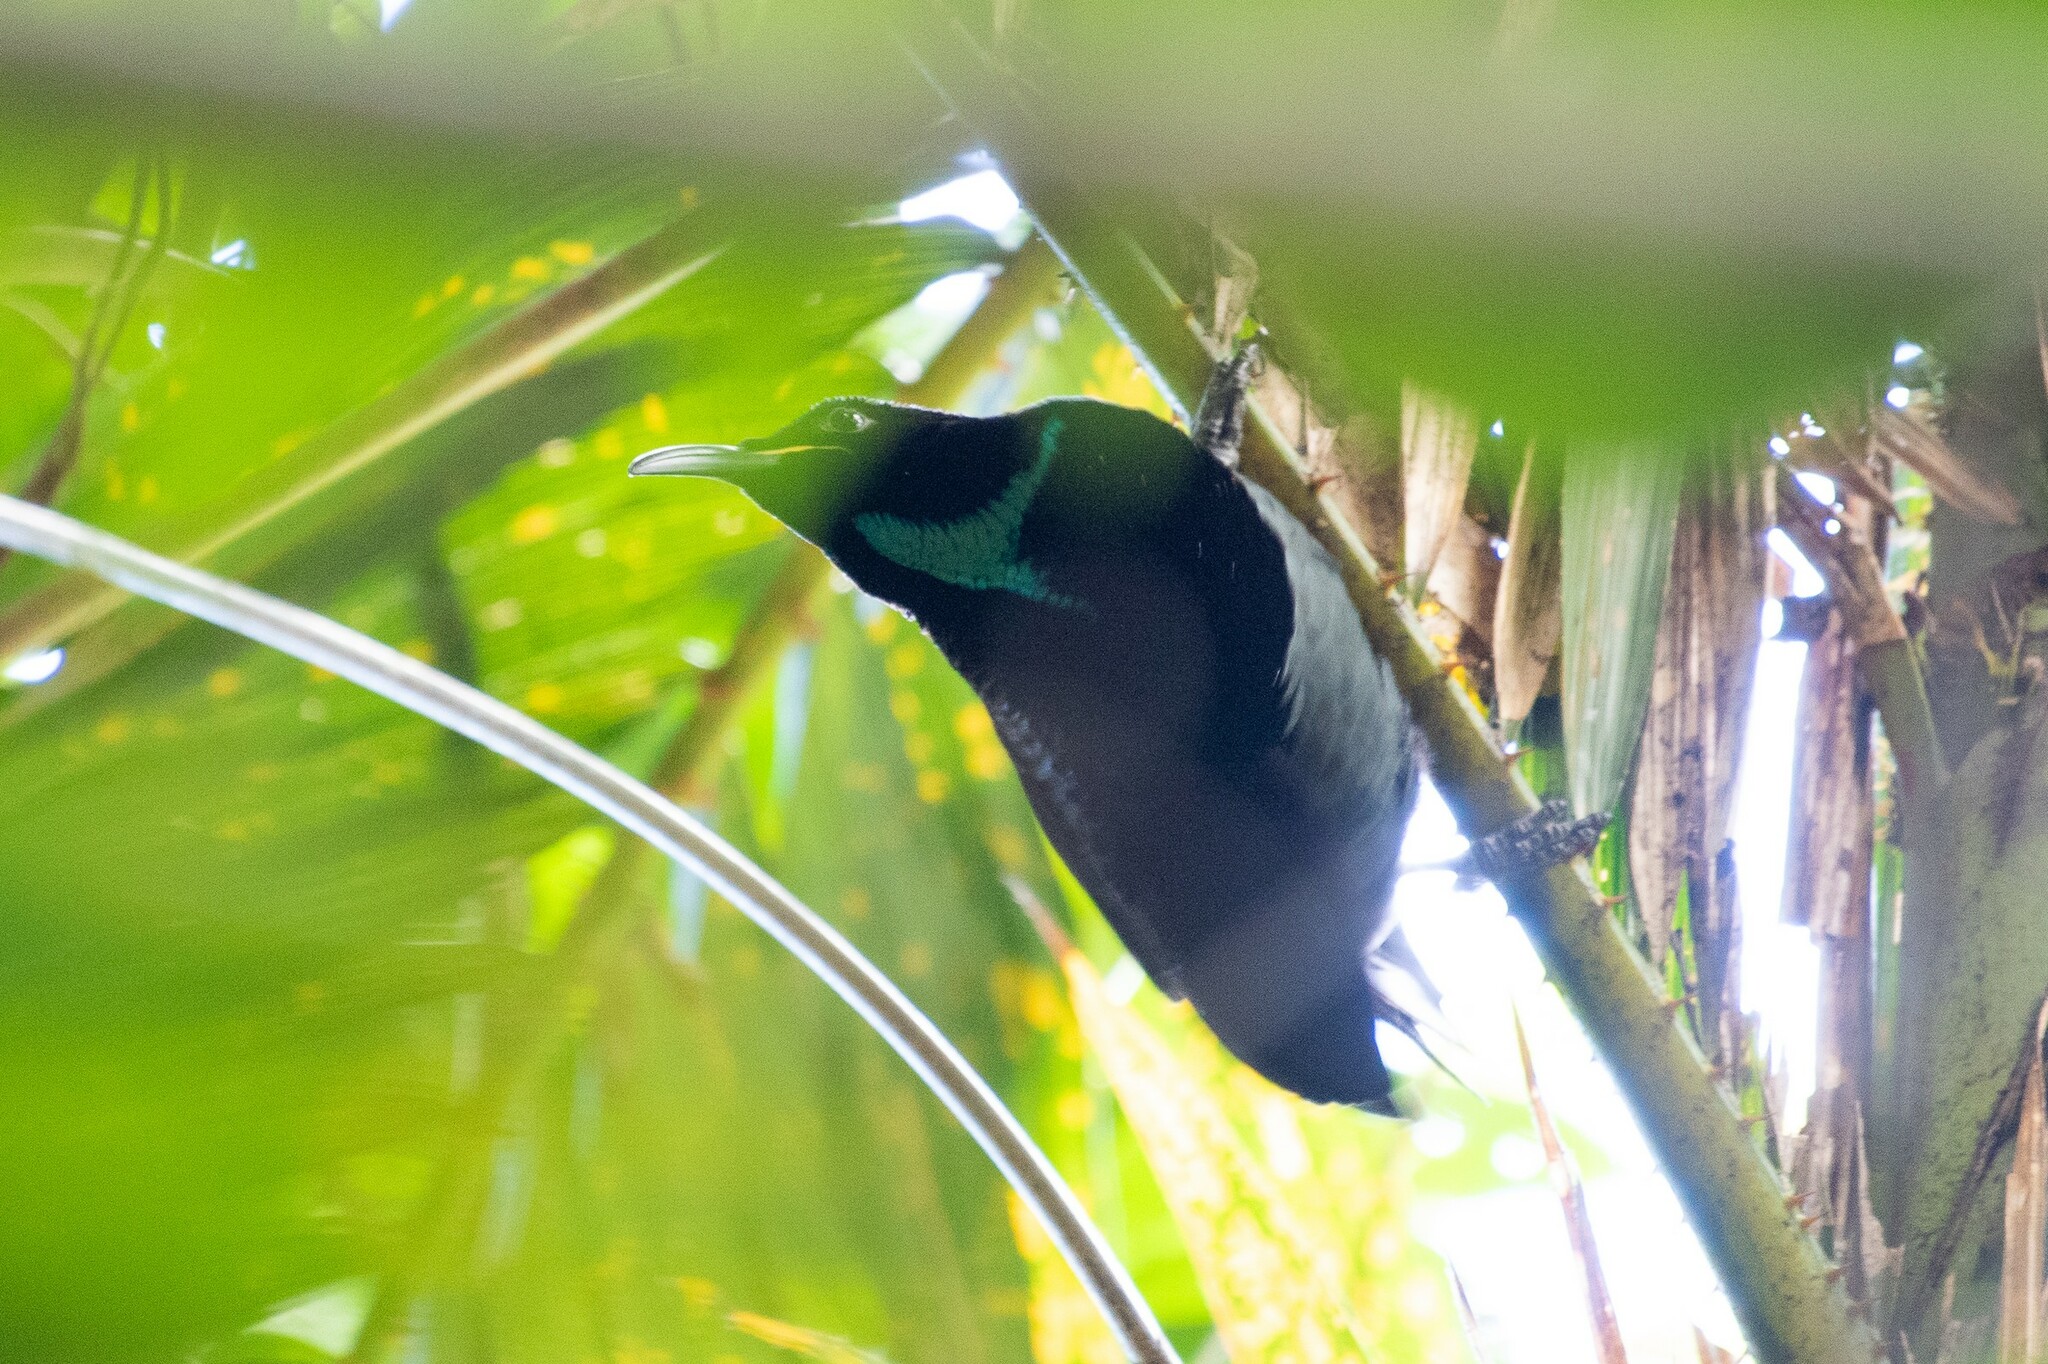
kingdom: Animalia
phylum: Chordata
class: Aves
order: Passeriformes
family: Paradisaeidae
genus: Ptiloris
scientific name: Ptiloris victoriae
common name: Victoria's riflebird
